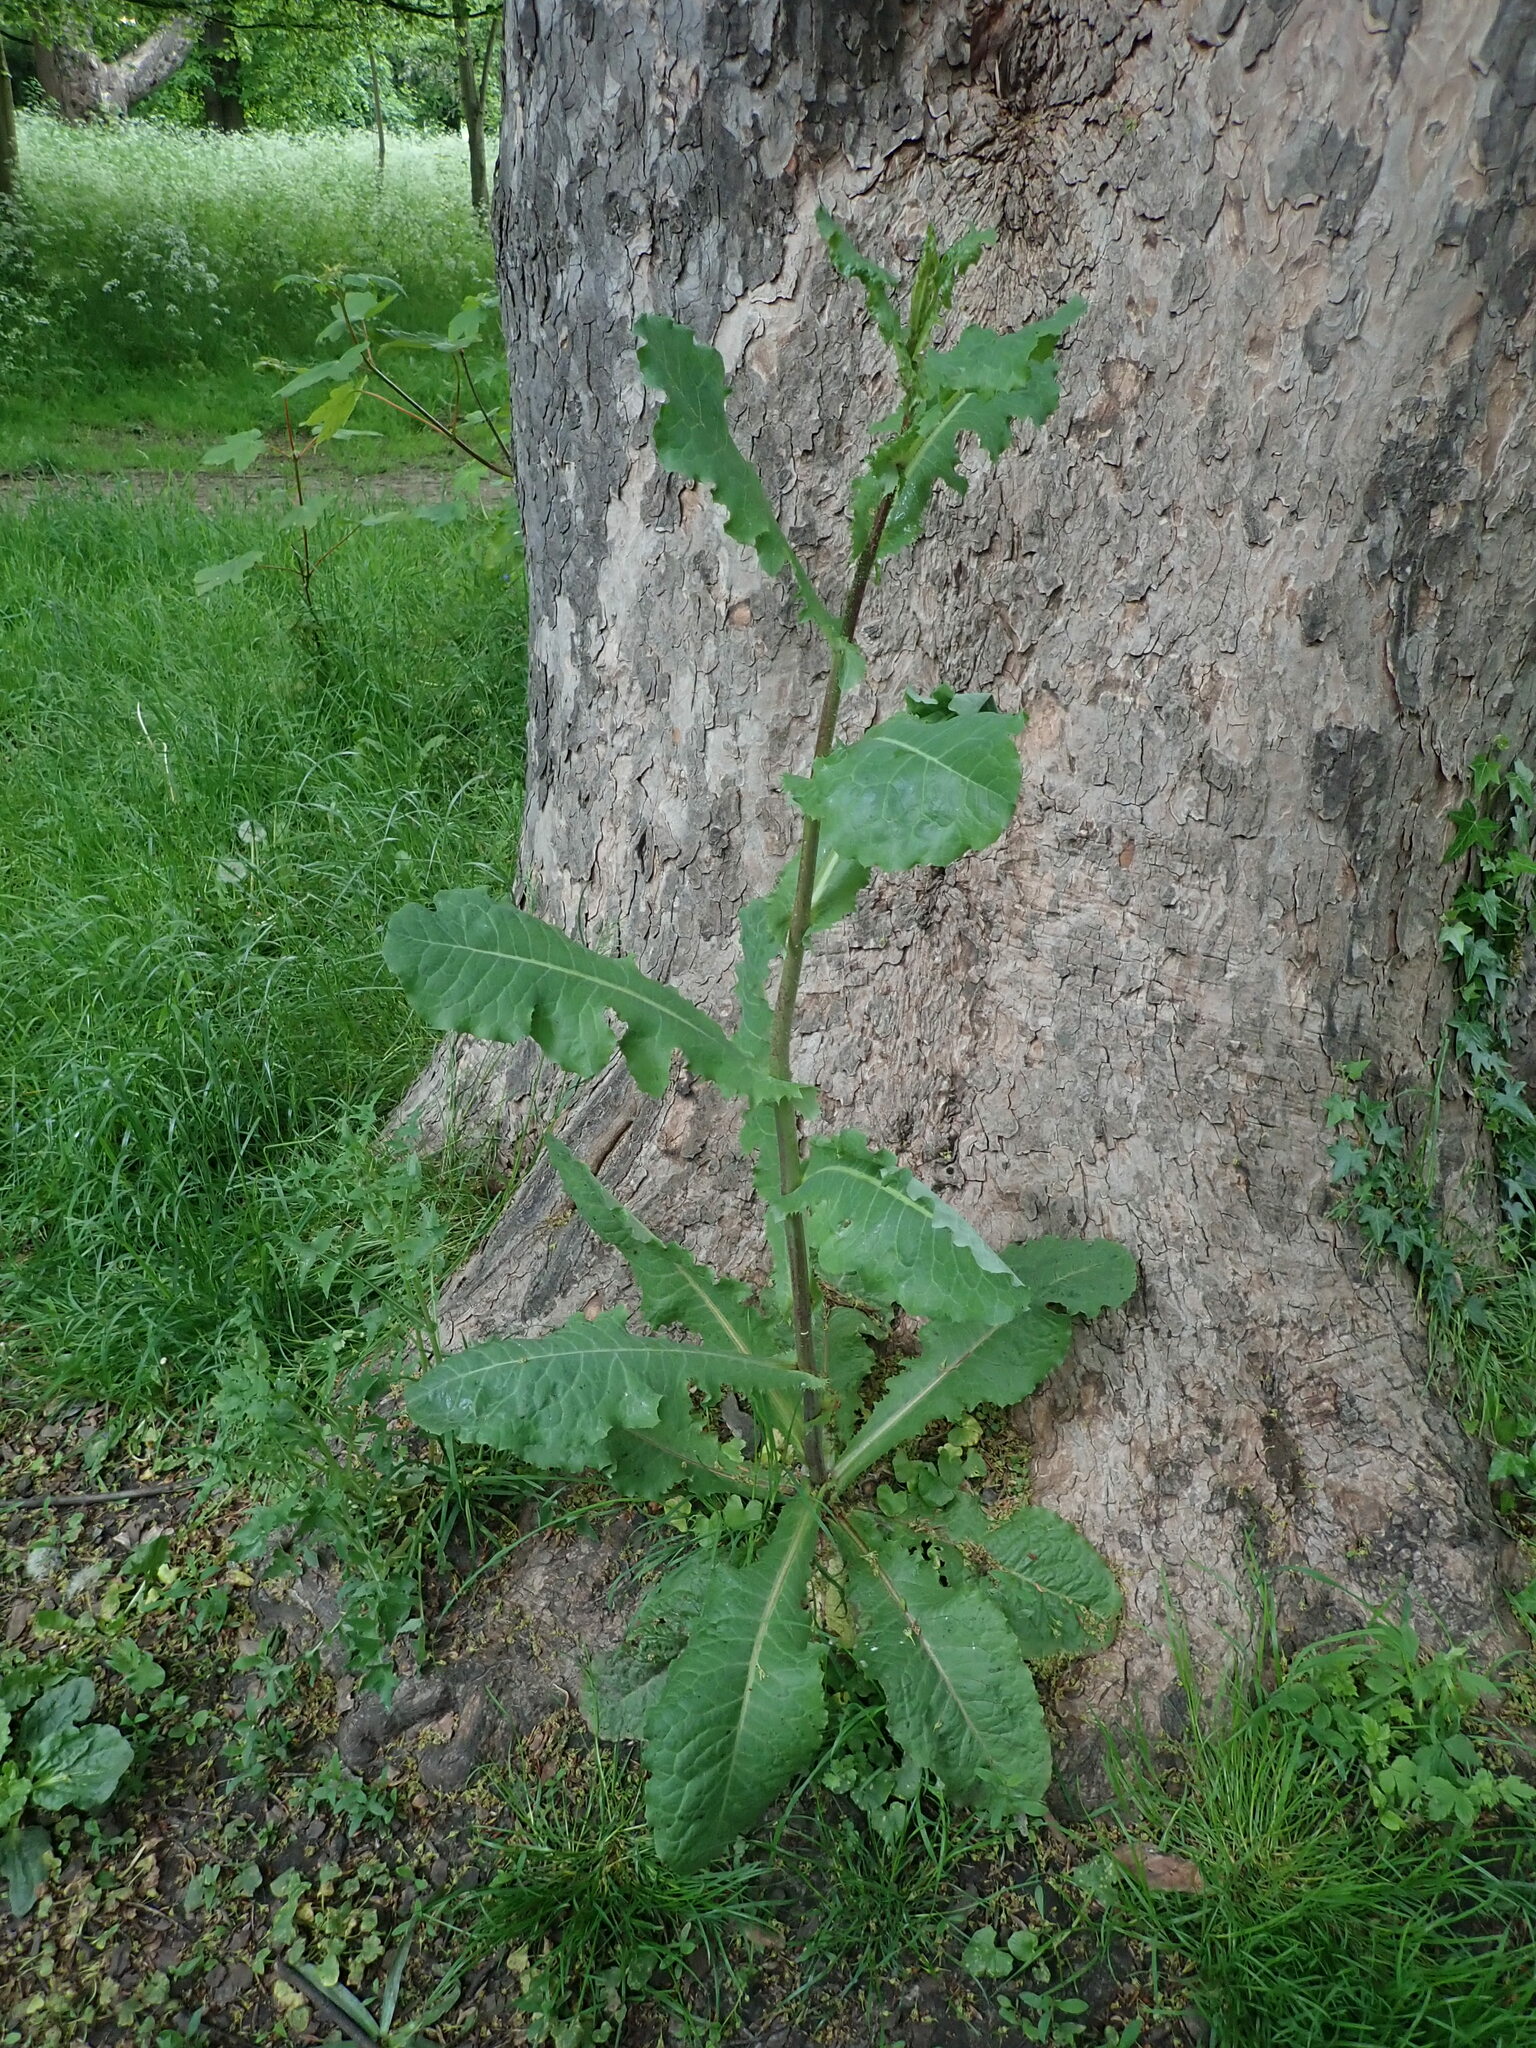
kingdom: Plantae
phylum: Tracheophyta
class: Magnoliopsida
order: Asterales
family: Asteraceae
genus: Lactuca
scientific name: Lactuca virosa
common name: Great lettuce
